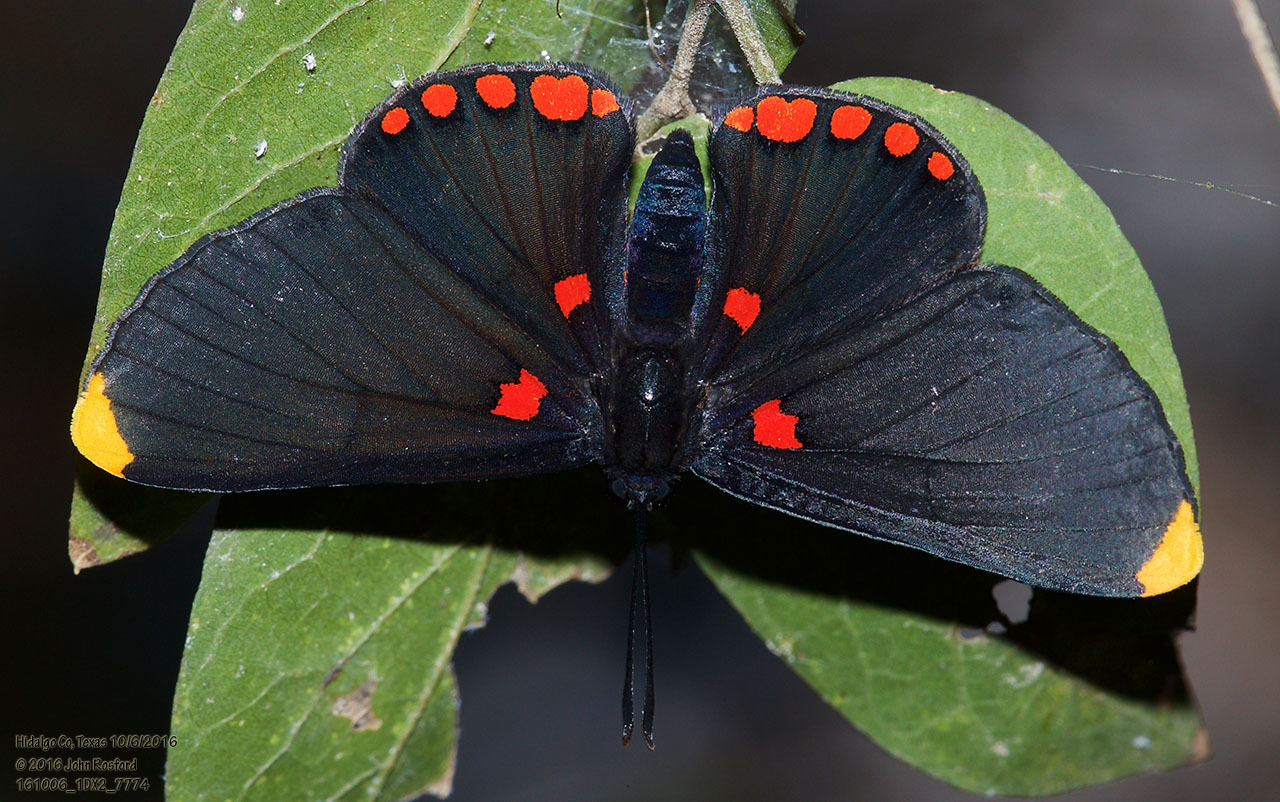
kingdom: Animalia
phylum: Arthropoda
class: Insecta
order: Lepidoptera
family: Lycaenidae
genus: Melanis
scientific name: Melanis pixe
